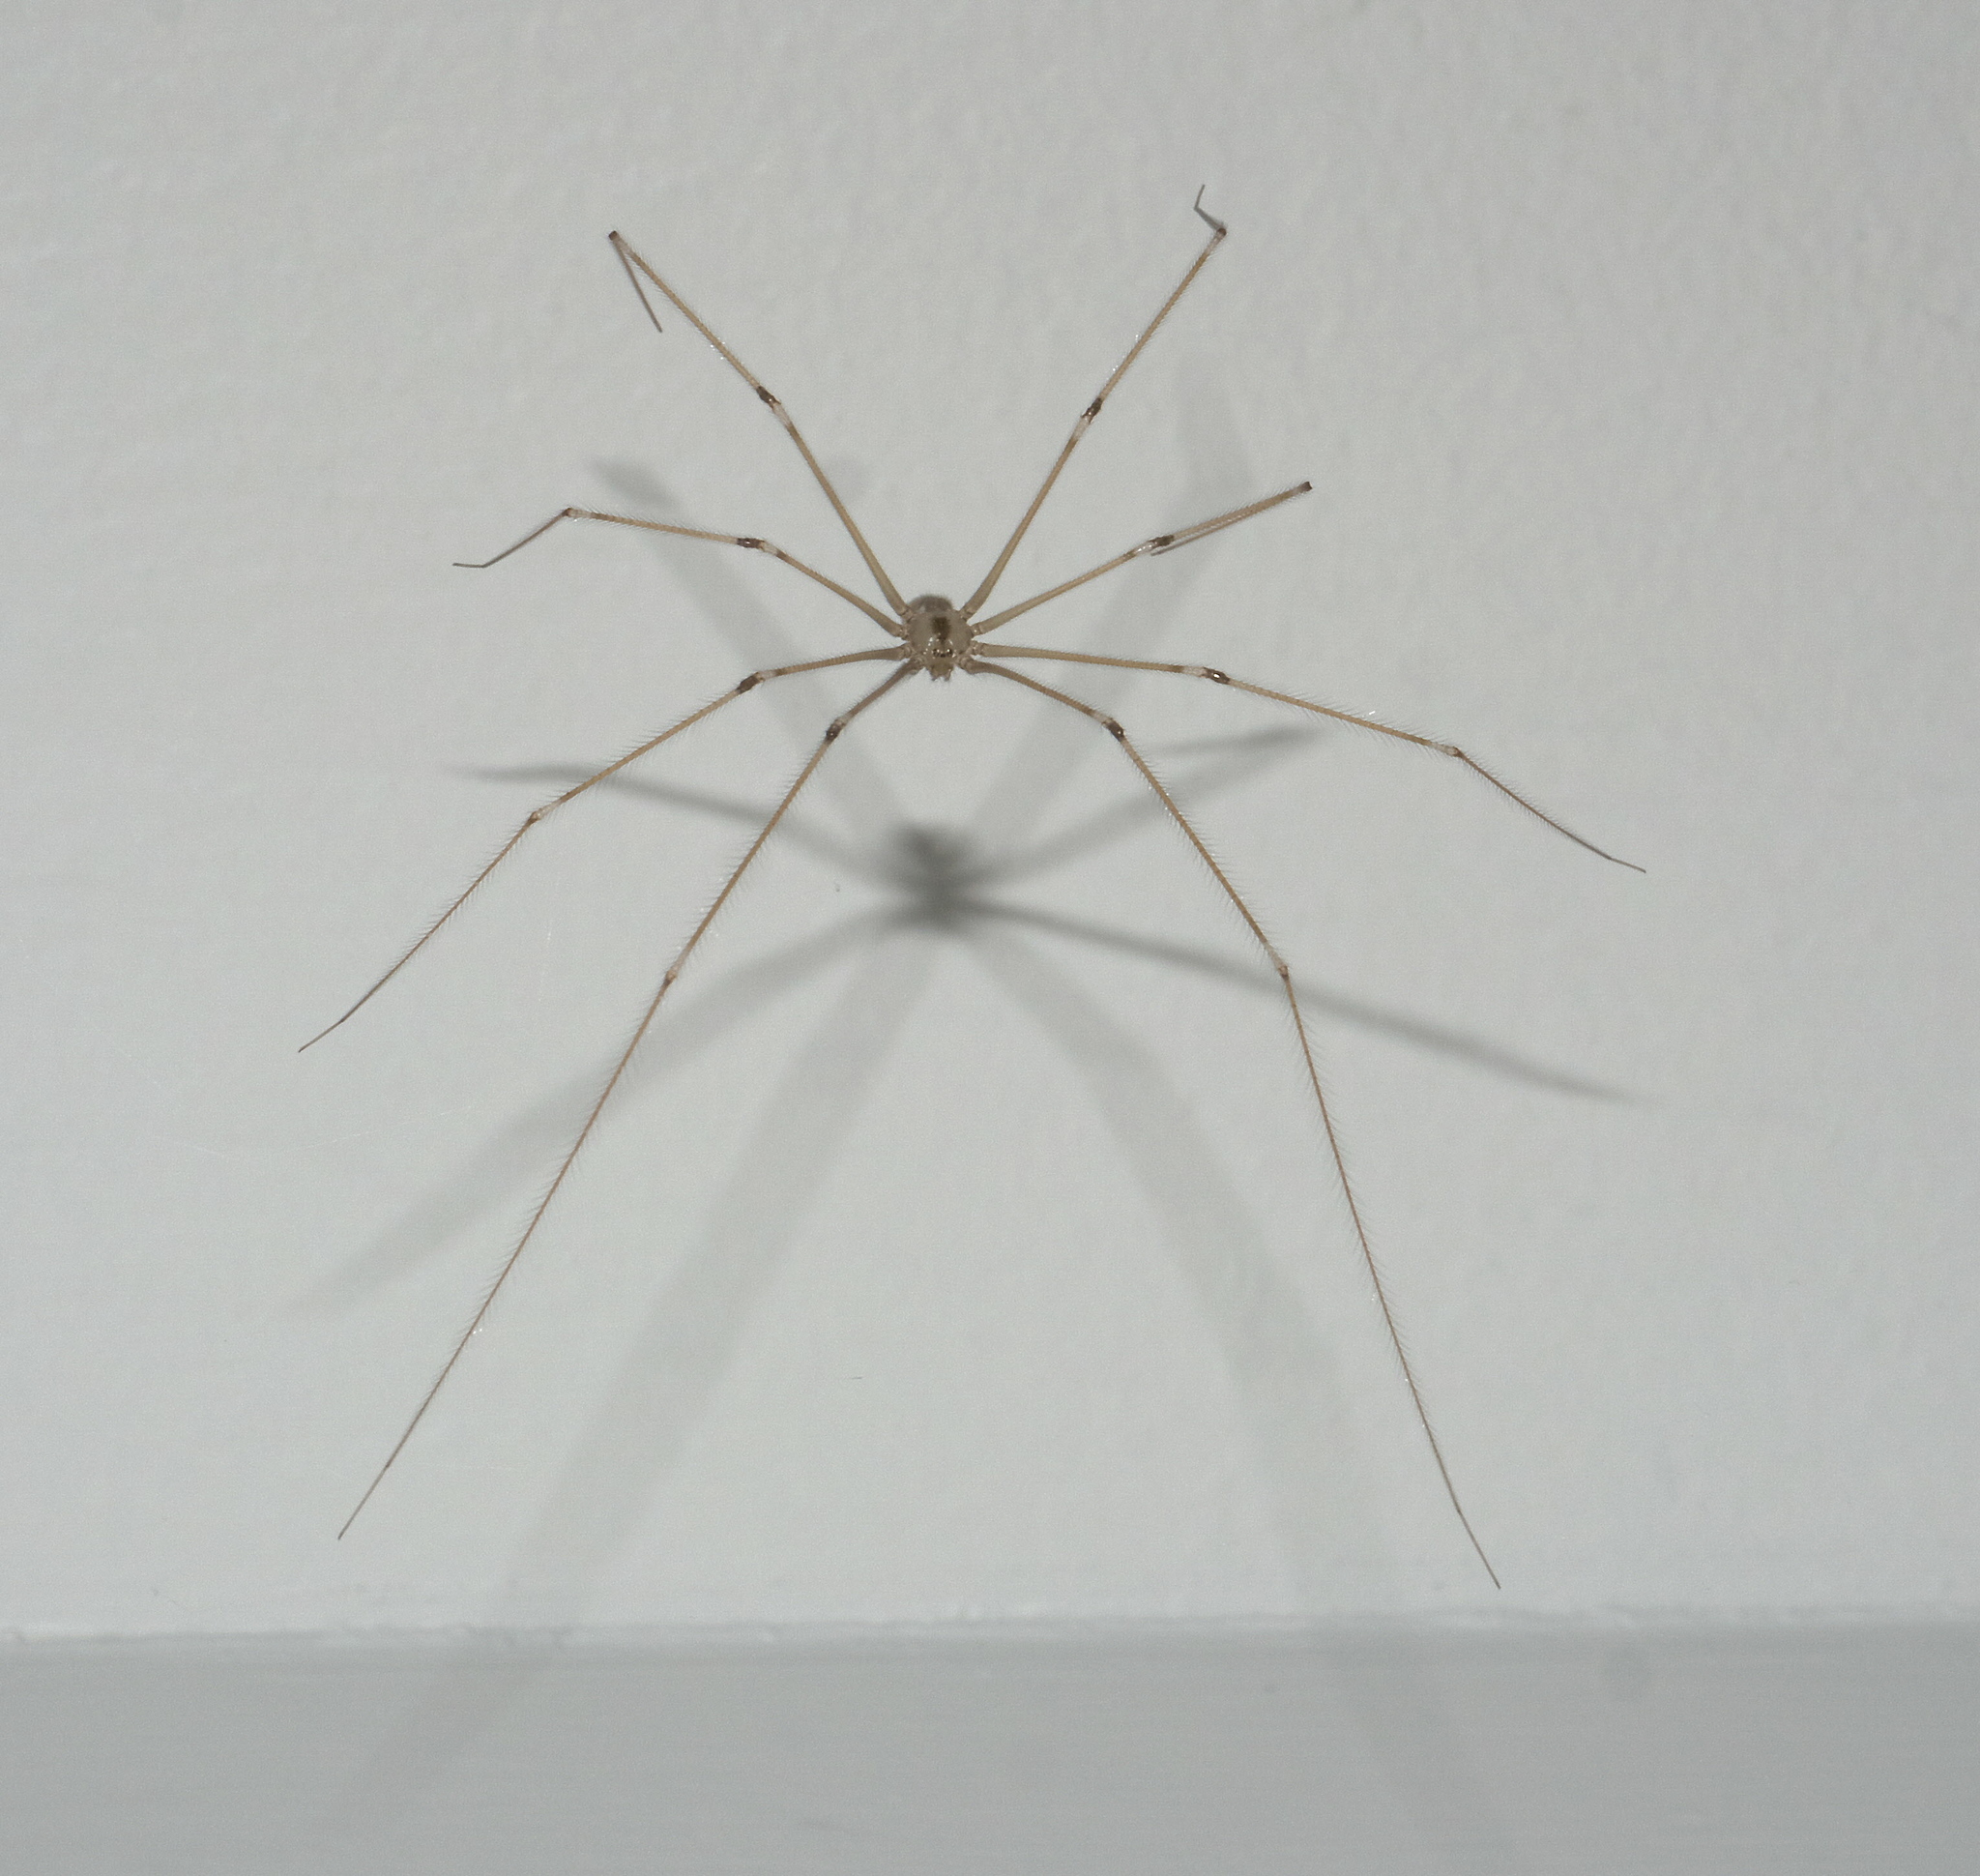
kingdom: Animalia
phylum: Arthropoda
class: Arachnida
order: Araneae
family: Pholcidae
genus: Pholcus
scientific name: Pholcus phalangioides
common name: Longbodied cellar spider
